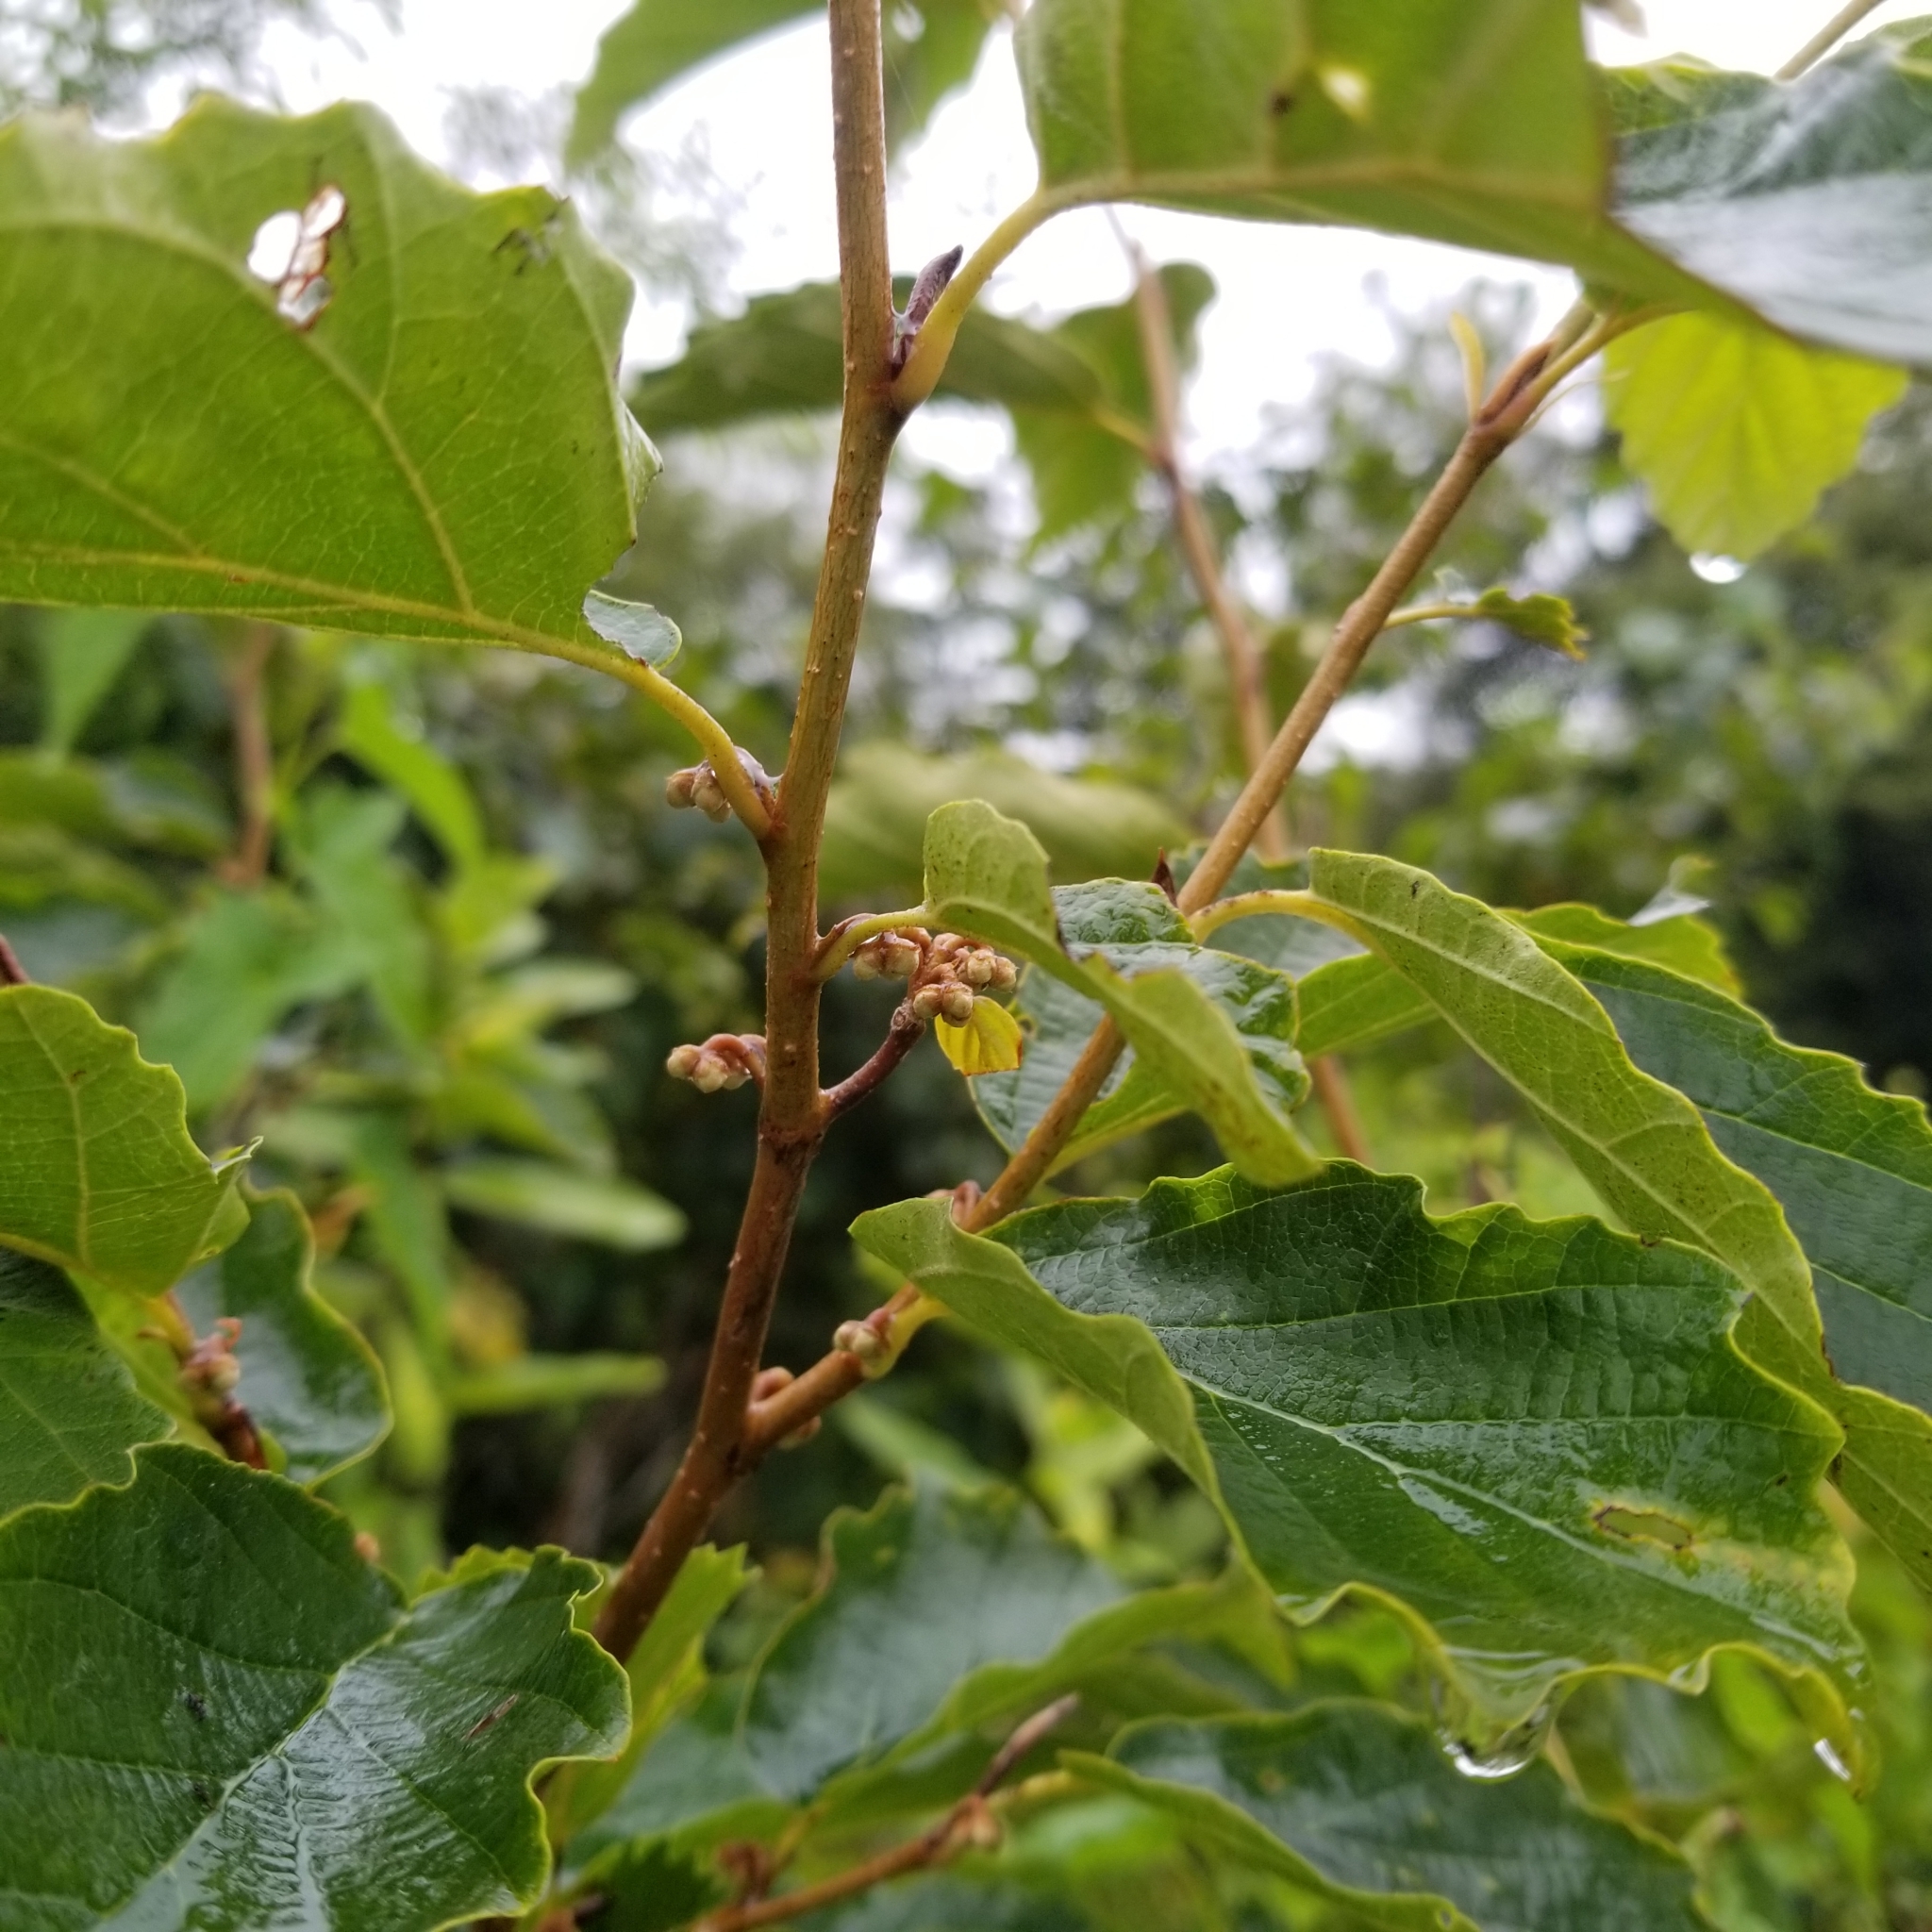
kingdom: Plantae
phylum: Tracheophyta
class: Magnoliopsida
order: Saxifragales
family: Hamamelidaceae
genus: Hamamelis
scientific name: Hamamelis virginiana
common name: Witch-hazel
